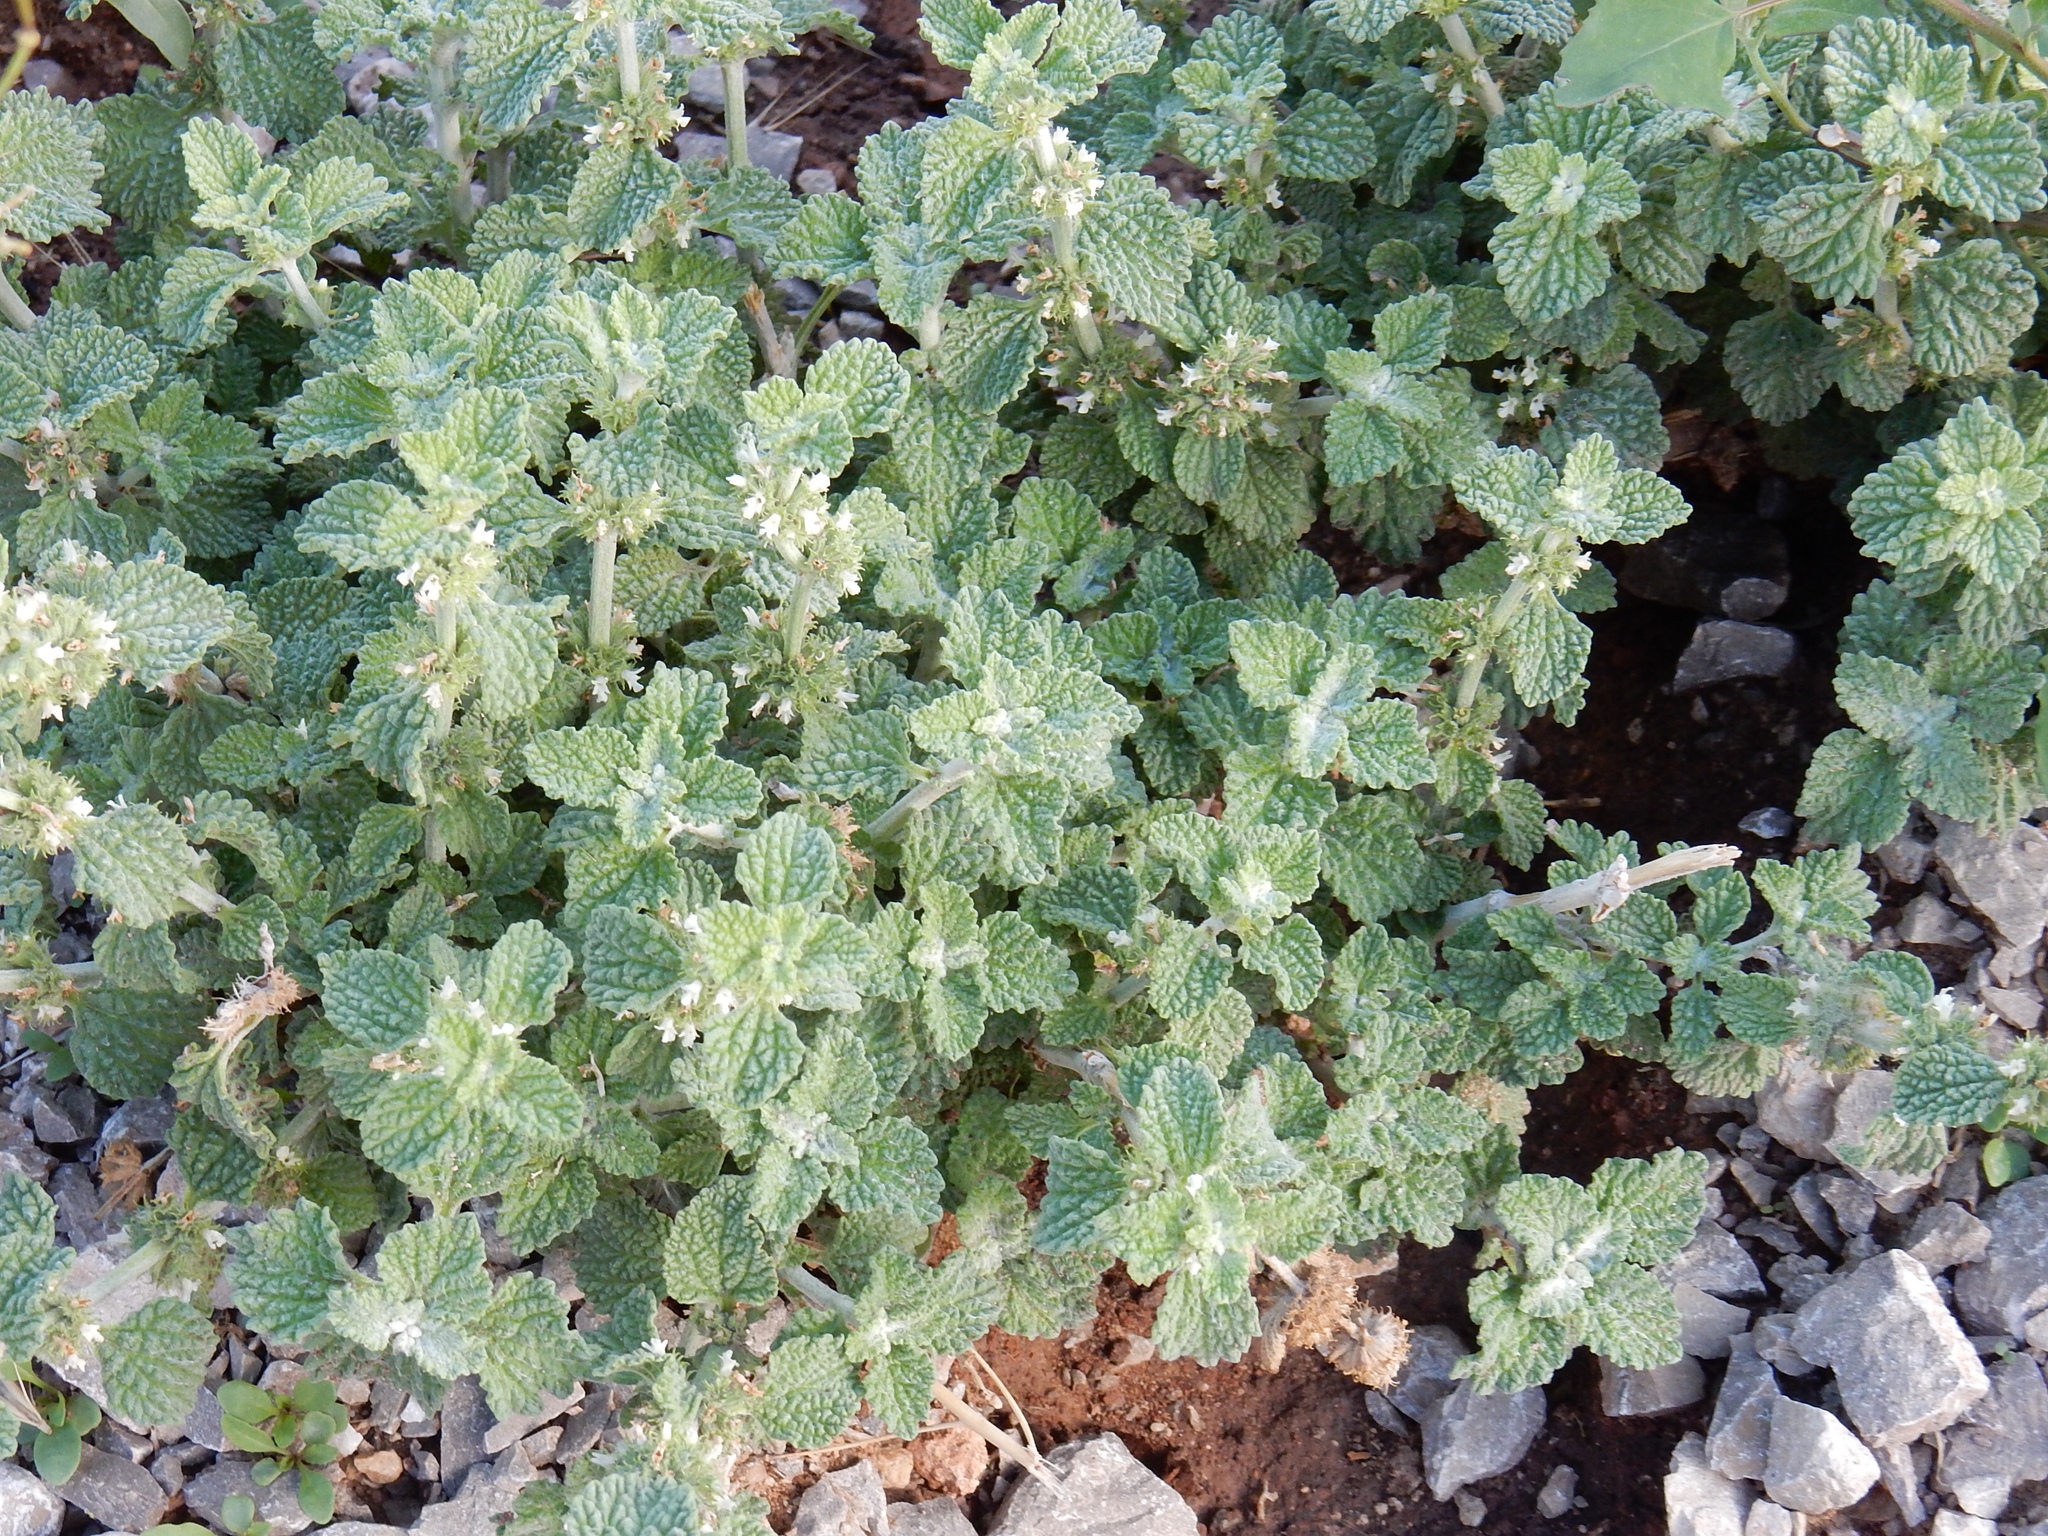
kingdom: Plantae
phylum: Tracheophyta
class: Magnoliopsida
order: Lamiales
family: Lamiaceae
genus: Marrubium
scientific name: Marrubium vulgare
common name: Horehound
